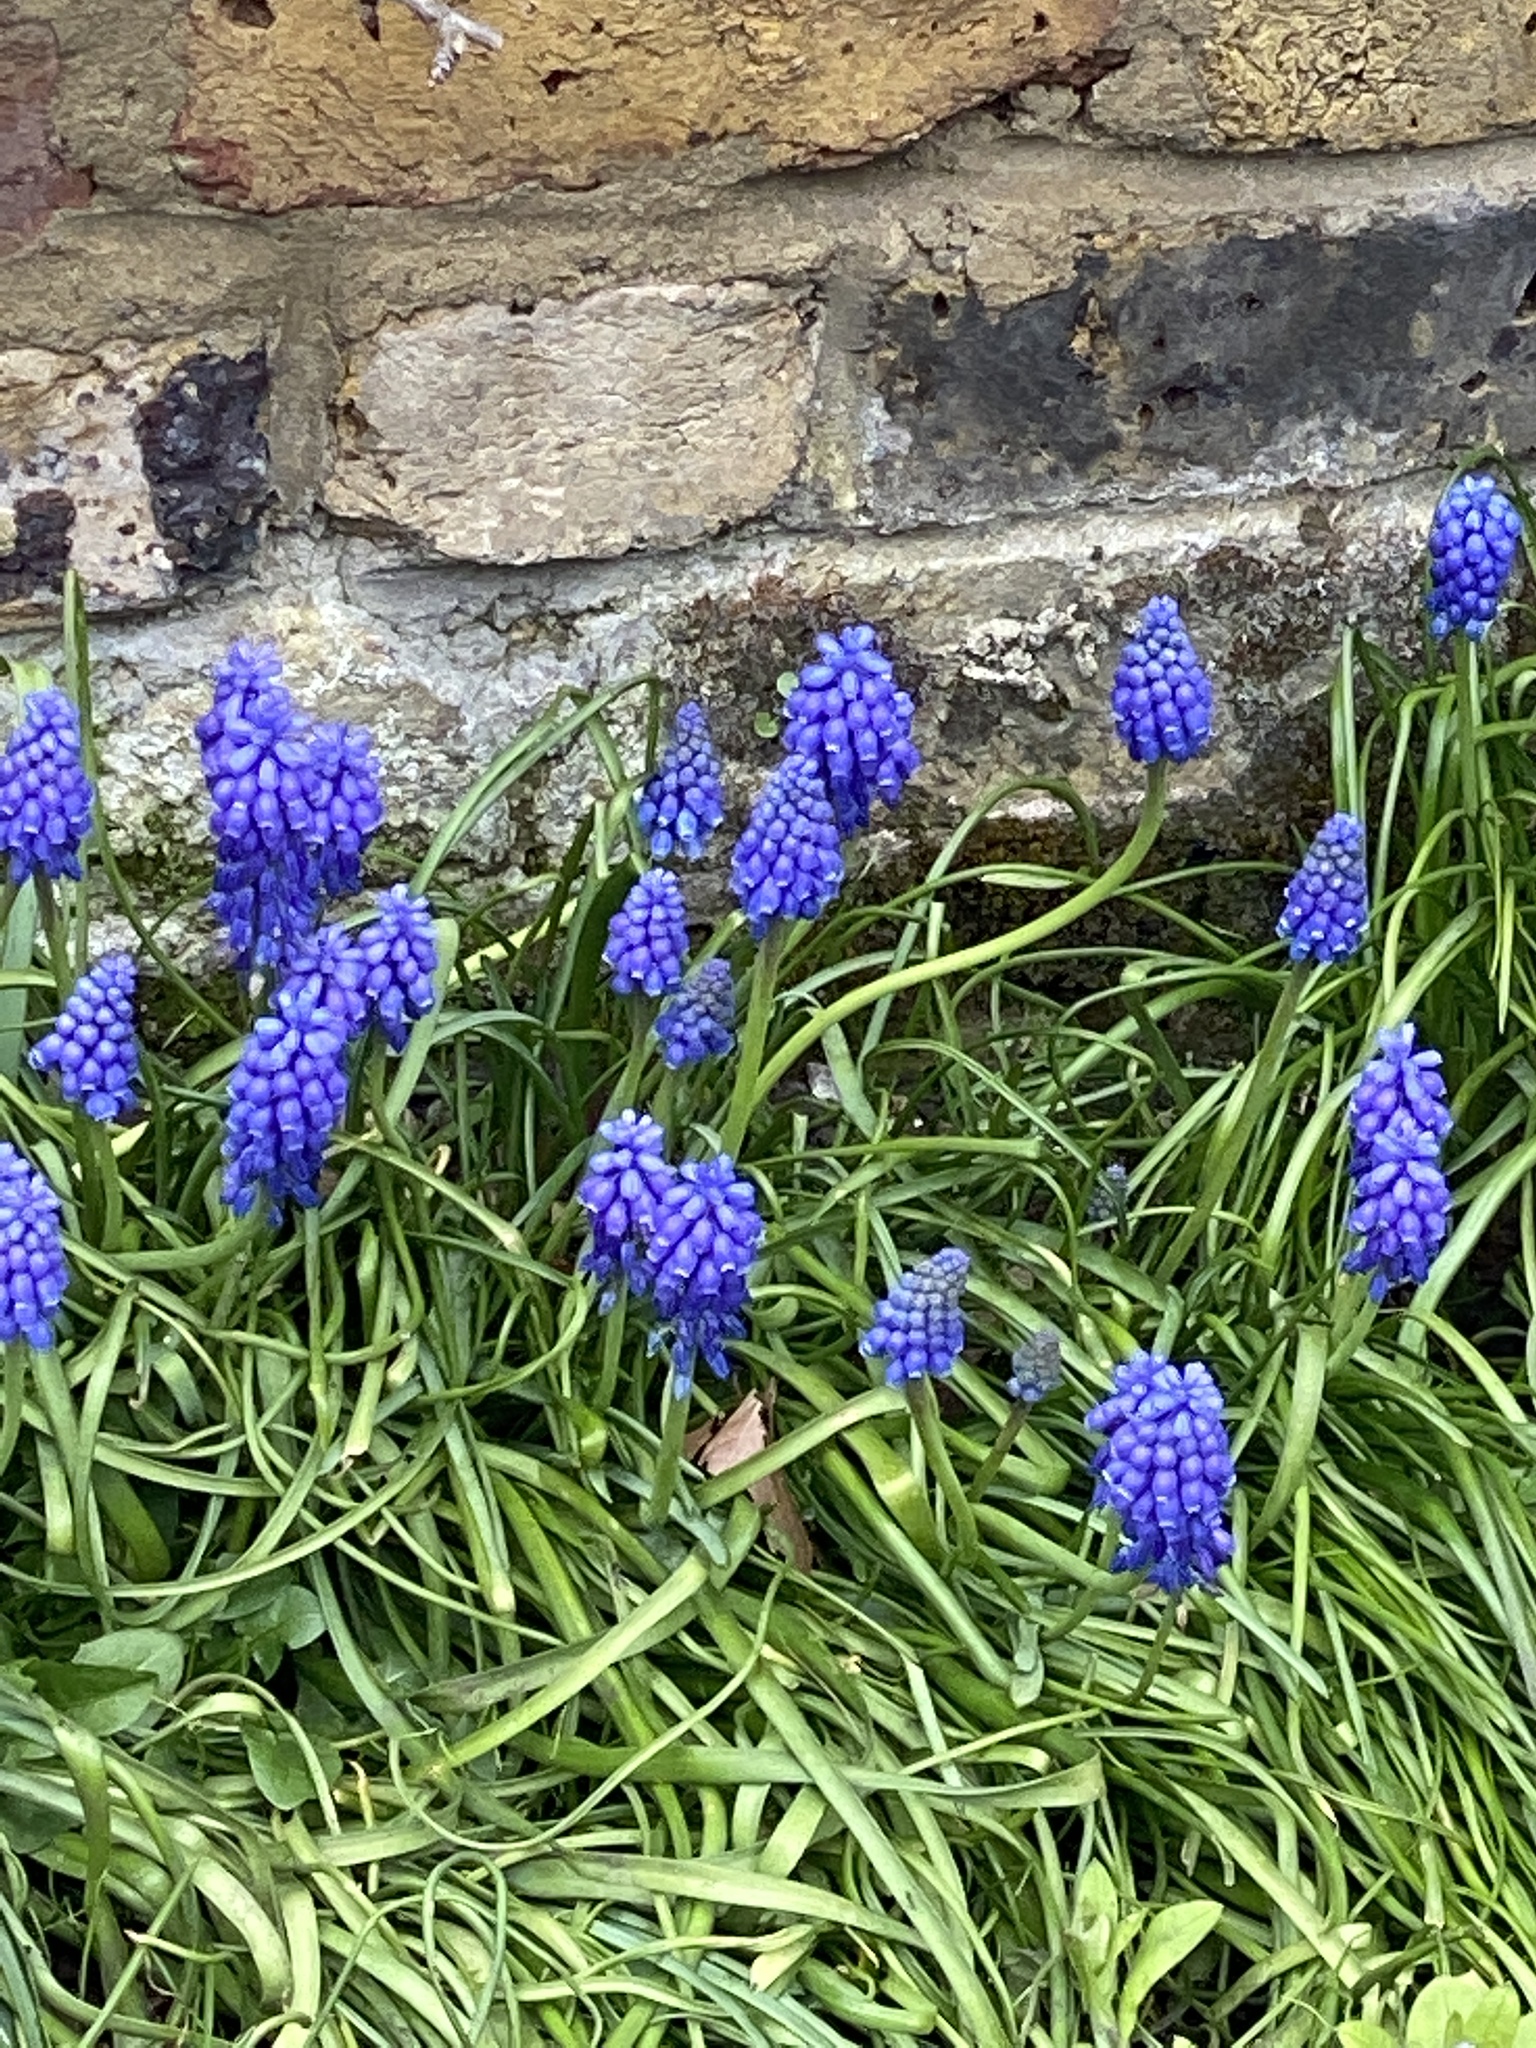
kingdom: Plantae
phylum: Tracheophyta
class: Liliopsida
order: Asparagales
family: Asparagaceae
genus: Muscari
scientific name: Muscari armeniacum
